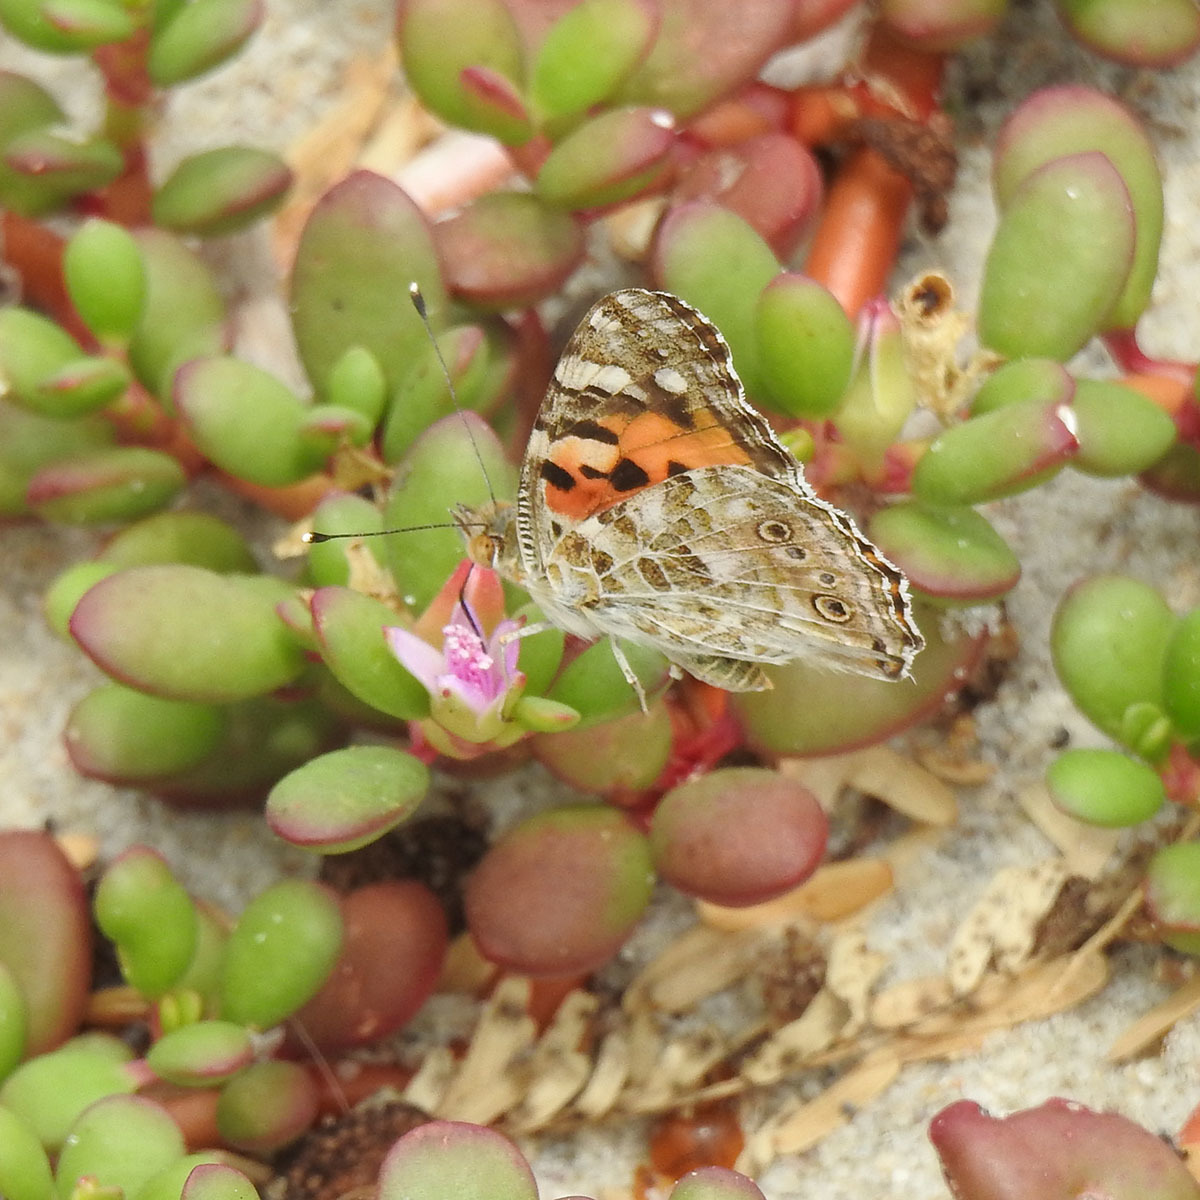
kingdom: Animalia
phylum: Arthropoda
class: Insecta
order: Lepidoptera
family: Nymphalidae
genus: Vanessa
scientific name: Vanessa cardui
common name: Painted lady
